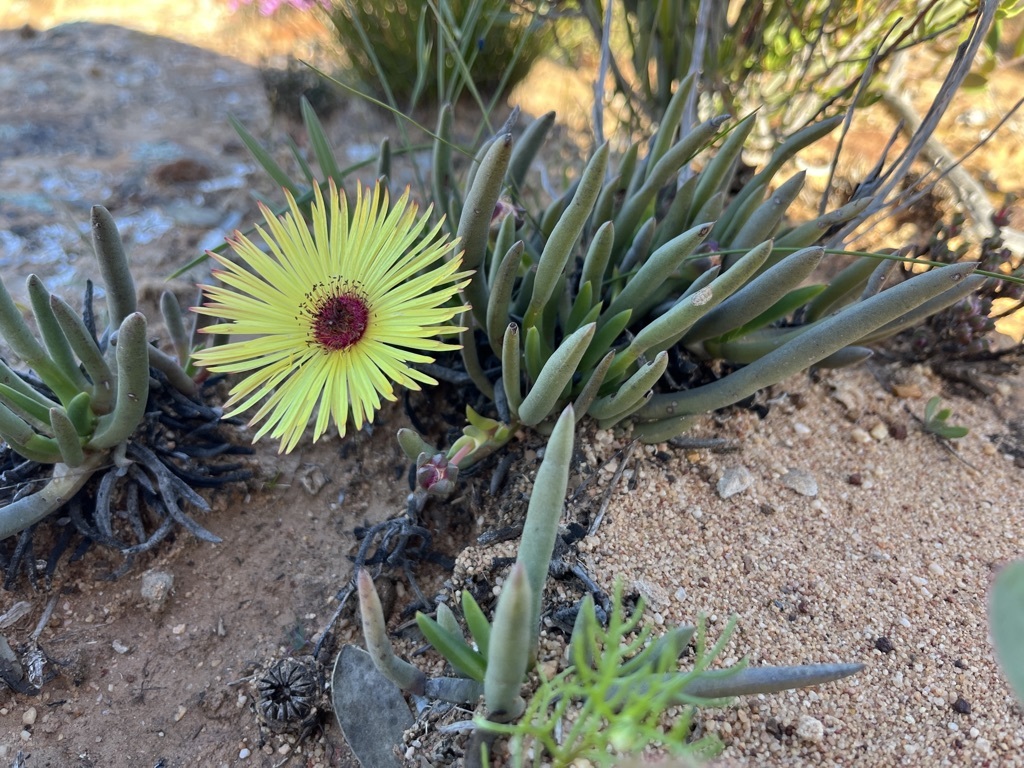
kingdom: Plantae
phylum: Tracheophyta
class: Magnoliopsida
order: Caryophyllales
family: Aizoaceae
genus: Cephalophyllum
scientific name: Cephalophyllum pillansii
